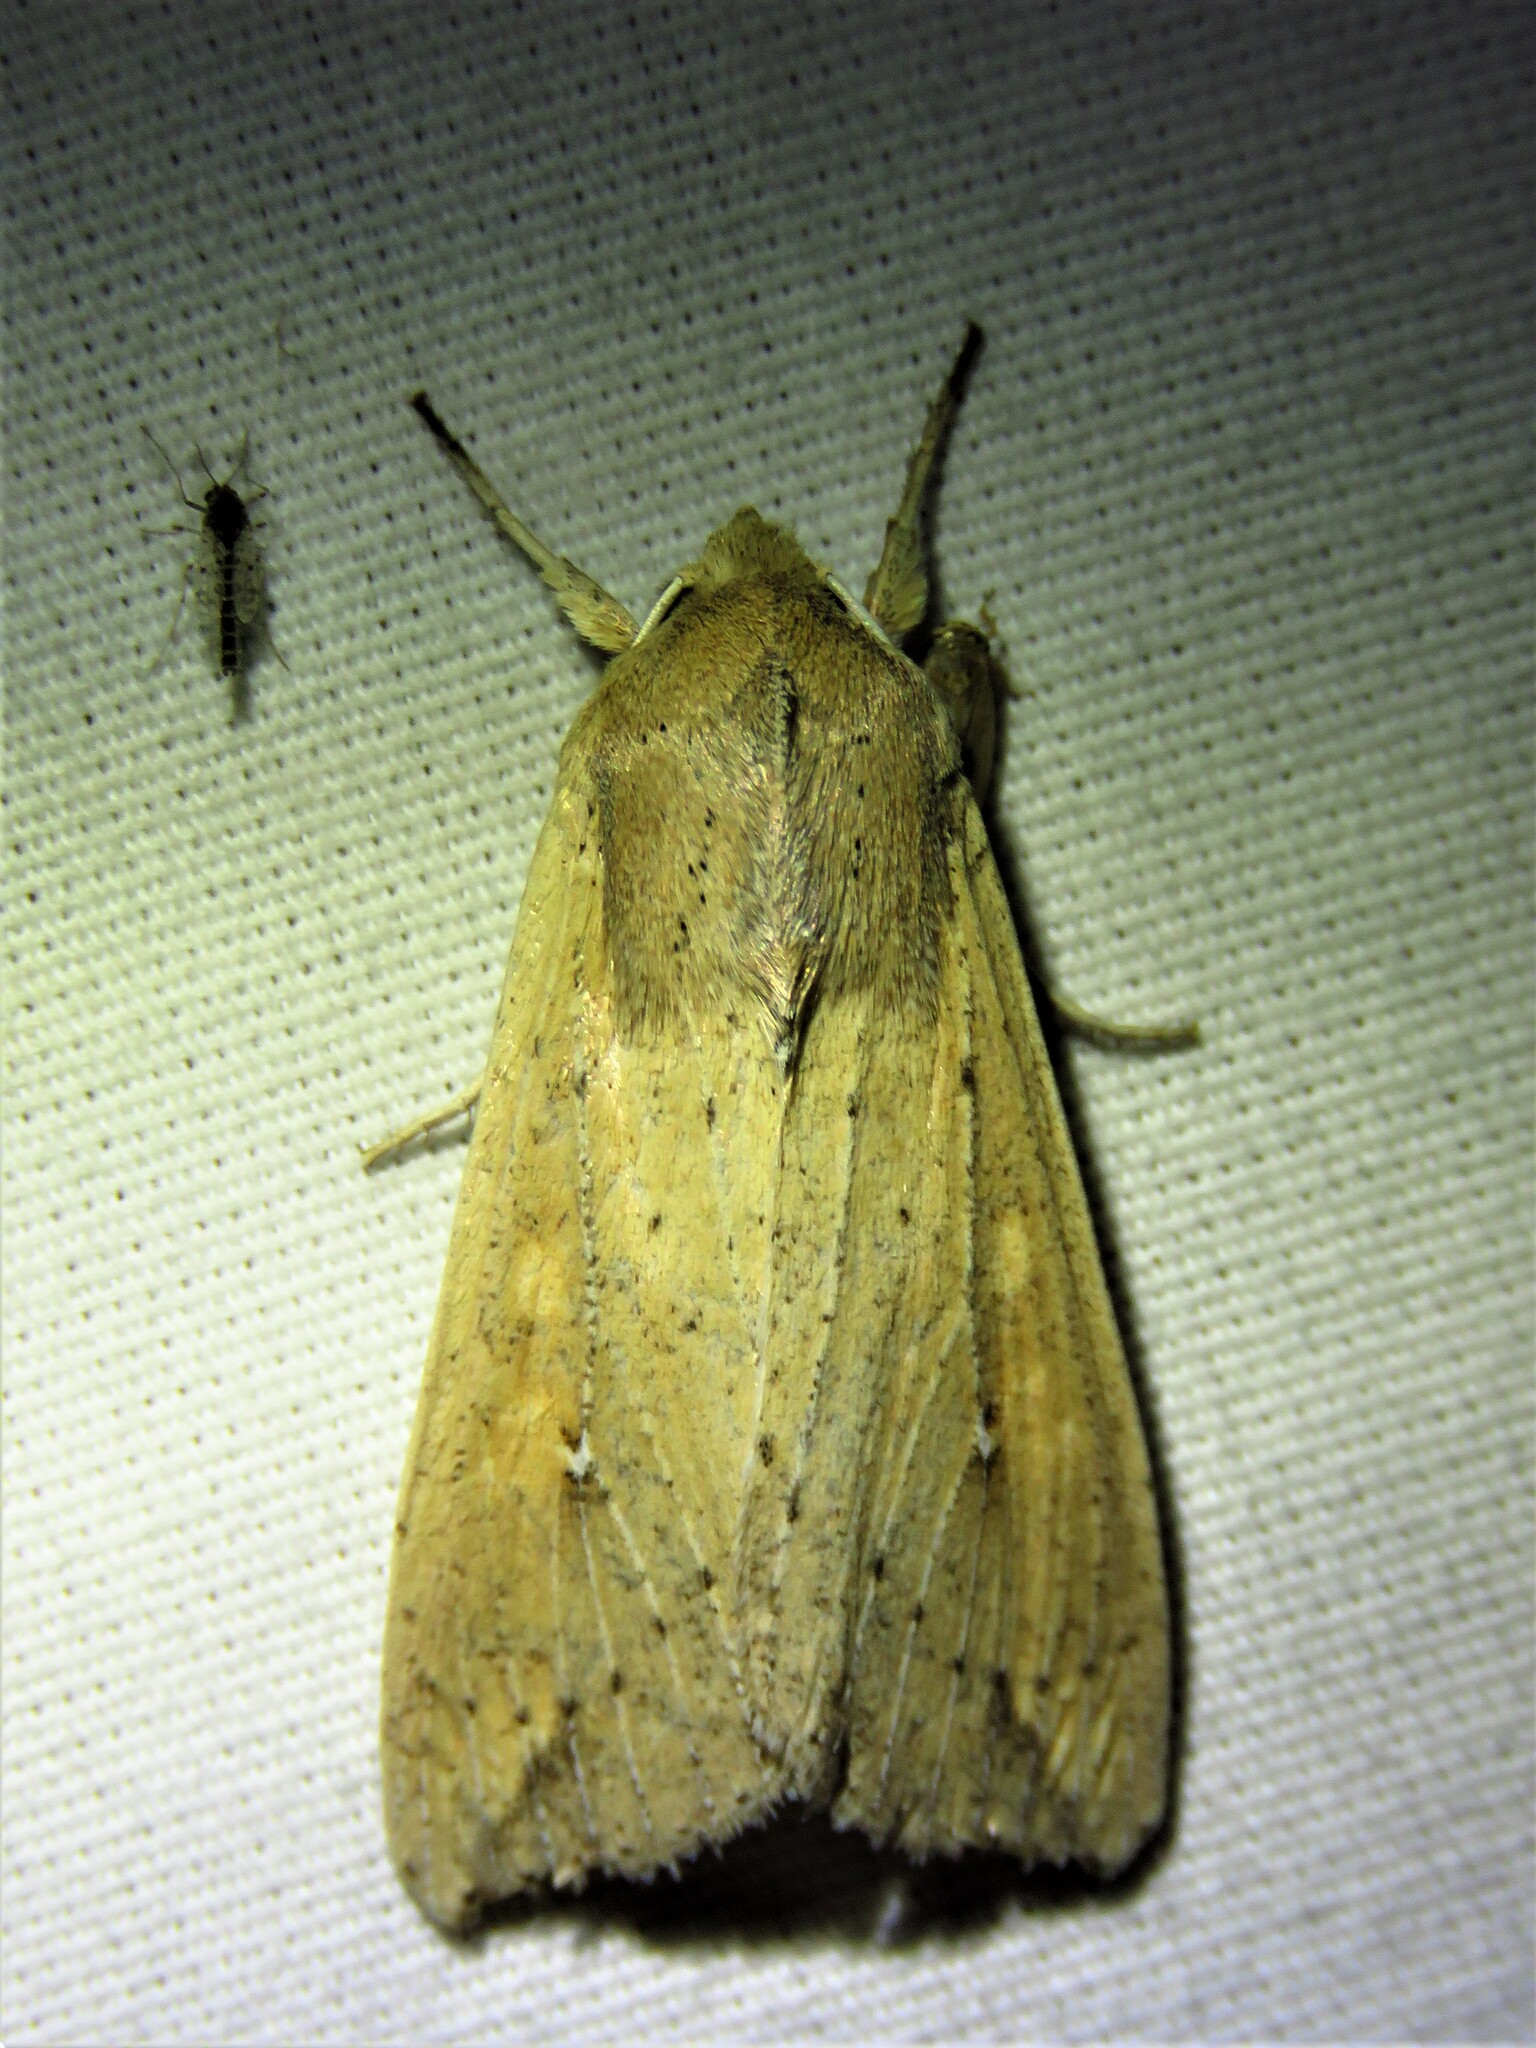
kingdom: Animalia
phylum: Arthropoda
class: Insecta
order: Lepidoptera
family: Noctuidae
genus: Mythimna
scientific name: Mythimna unipuncta
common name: White-speck
